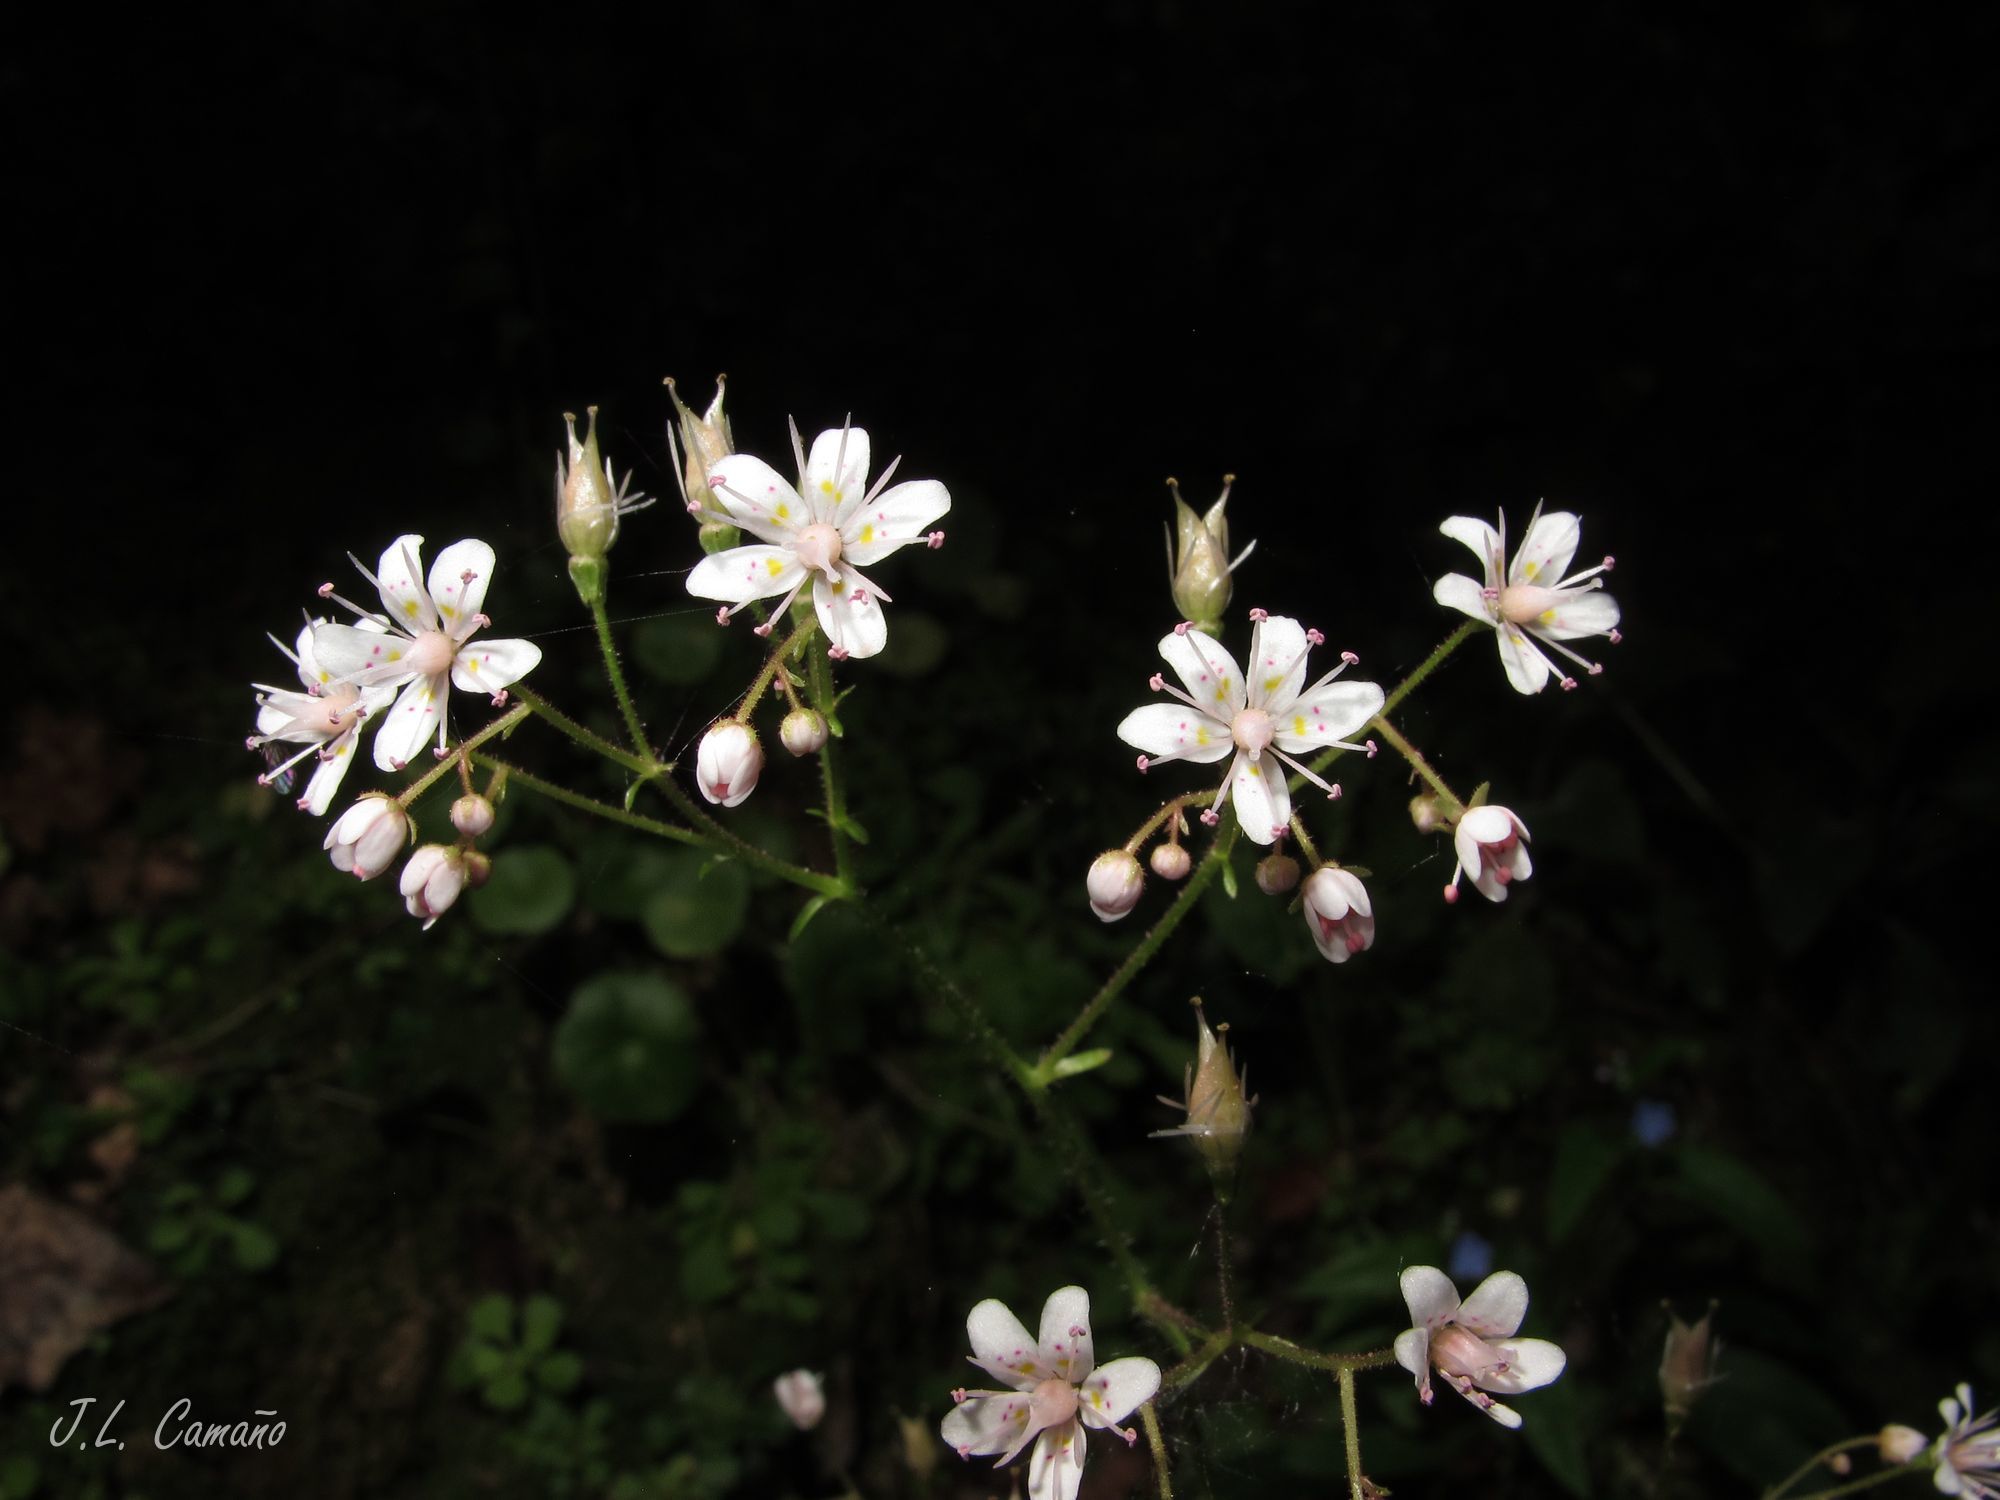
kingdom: Plantae
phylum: Tracheophyta
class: Magnoliopsida
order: Saxifragales
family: Saxifragaceae
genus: Saxifraga
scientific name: Saxifraga spathularis
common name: St patrick's-cabbage
